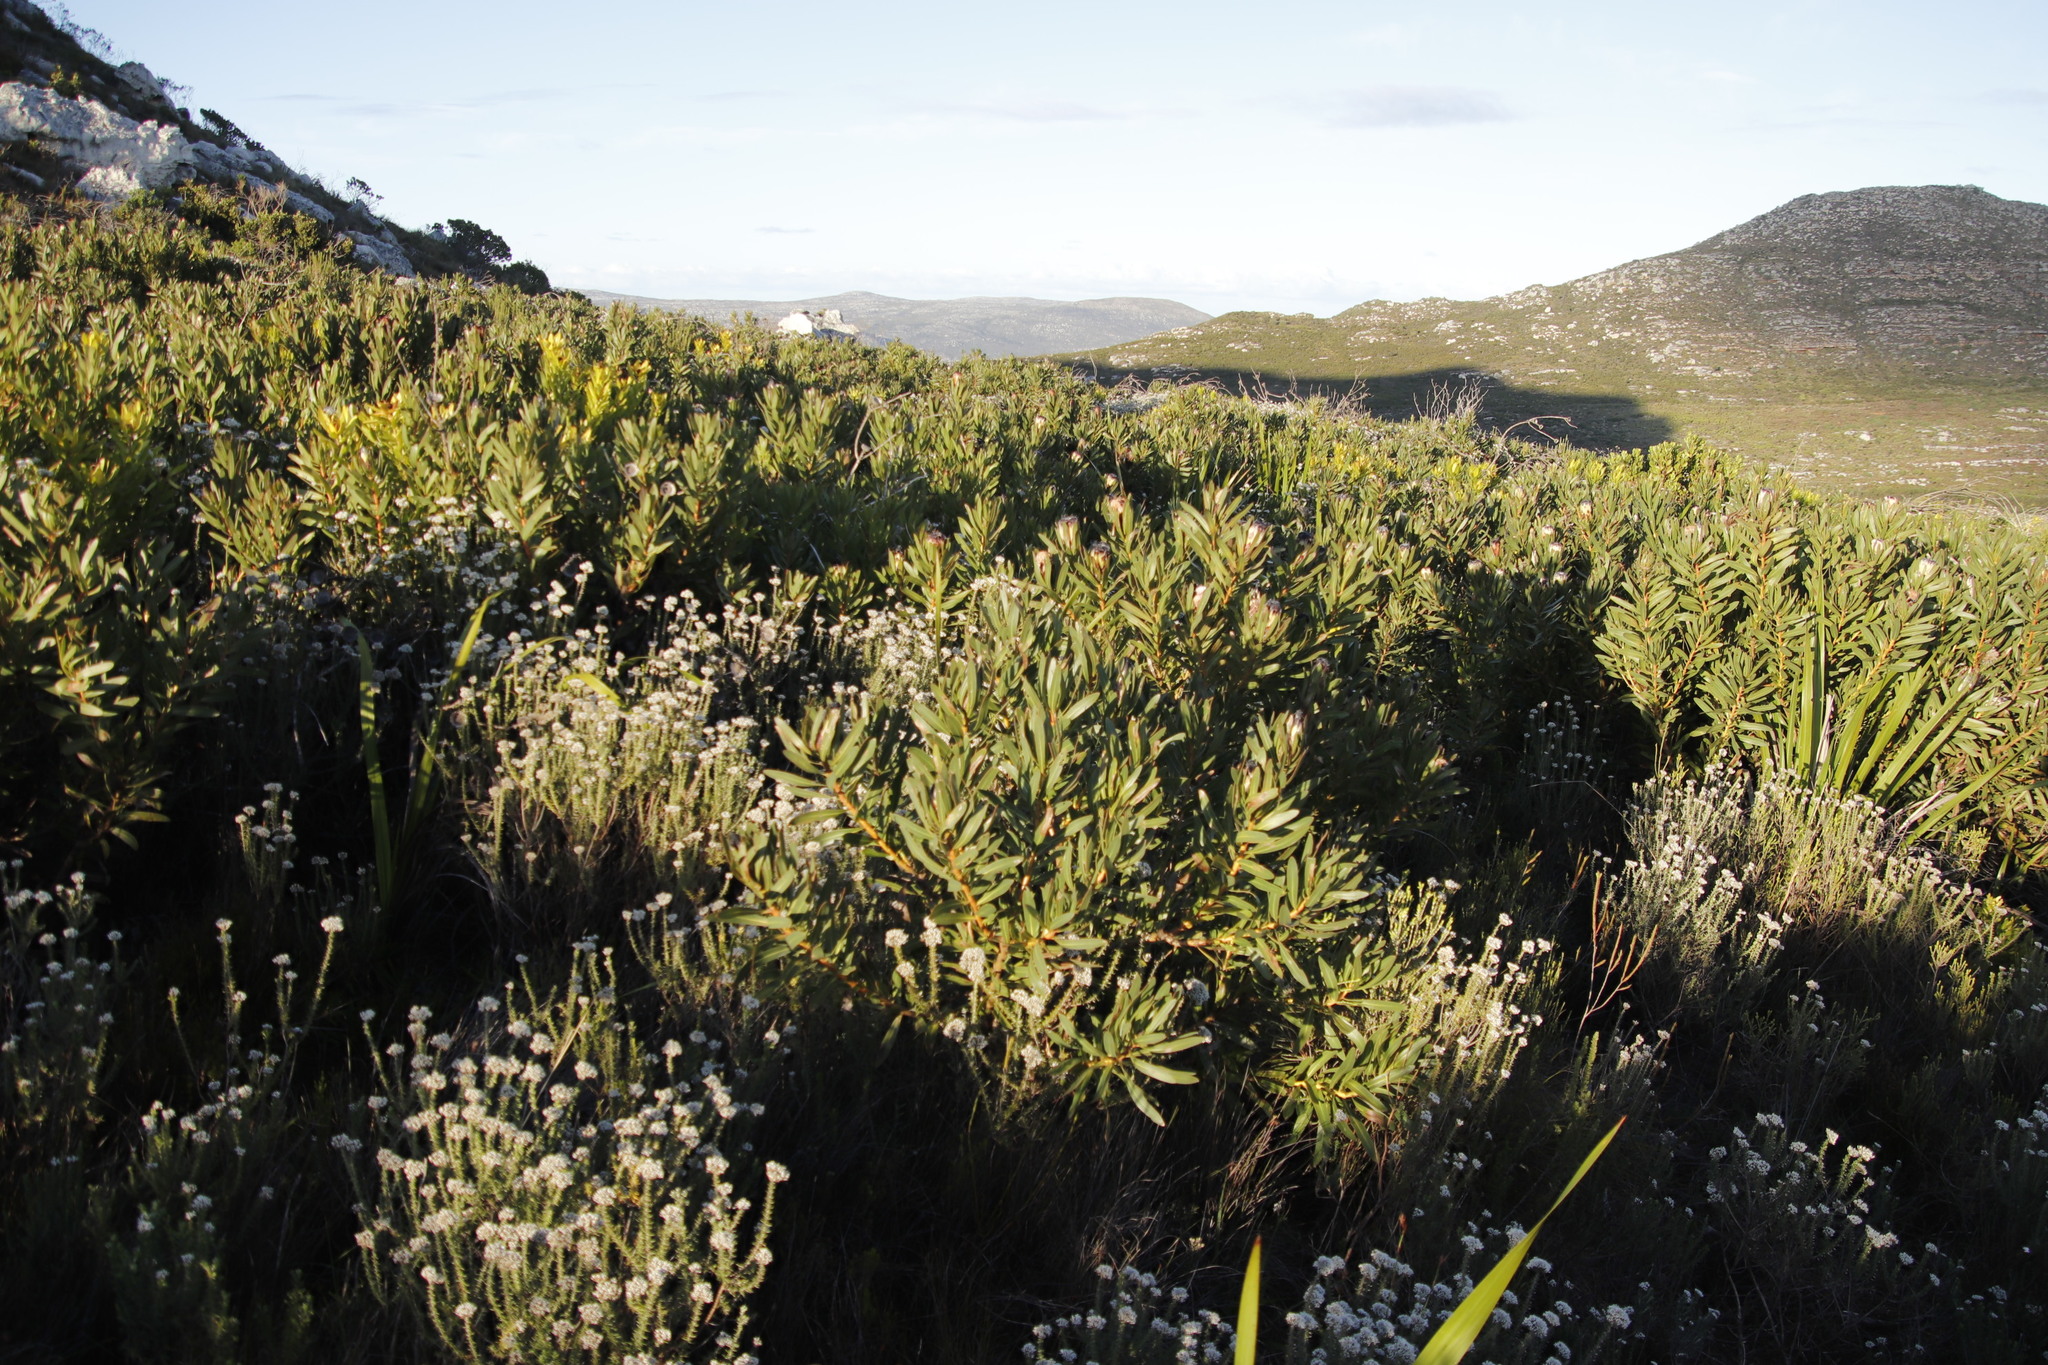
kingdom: Plantae
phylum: Tracheophyta
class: Magnoliopsida
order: Proteales
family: Proteaceae
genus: Protea
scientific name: Protea lepidocarpodendron
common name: Black-bearded protea
